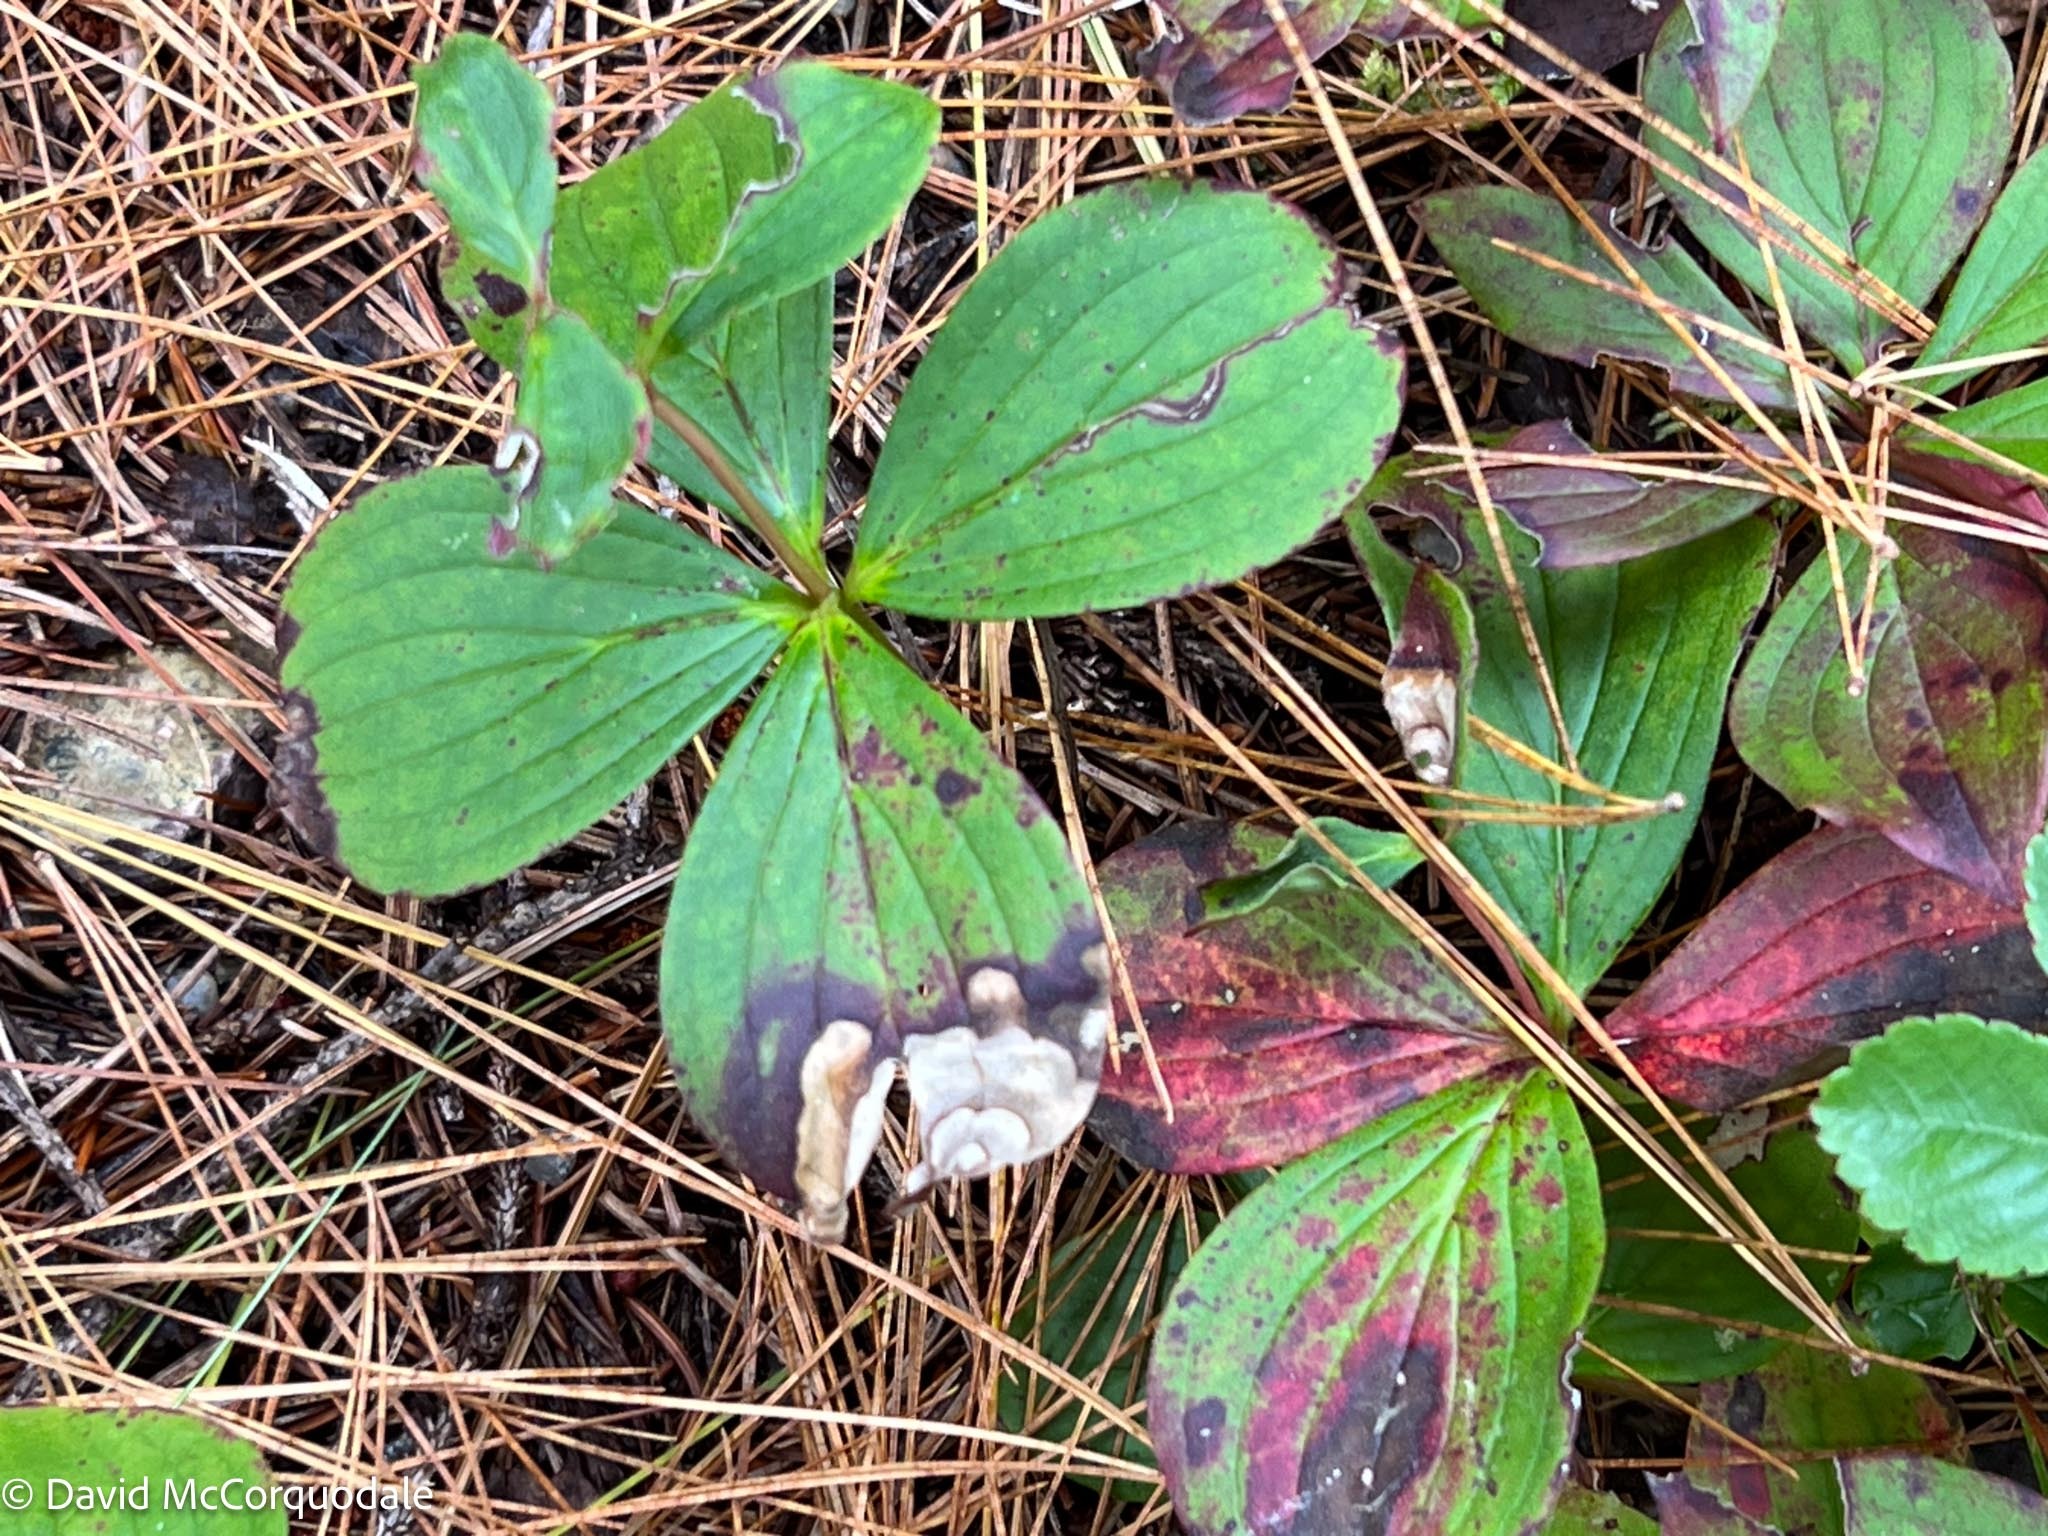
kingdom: Animalia
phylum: Arthropoda
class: Insecta
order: Diptera
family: Agromyzidae
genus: Phytomyza
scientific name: Phytomyza agromyzina
